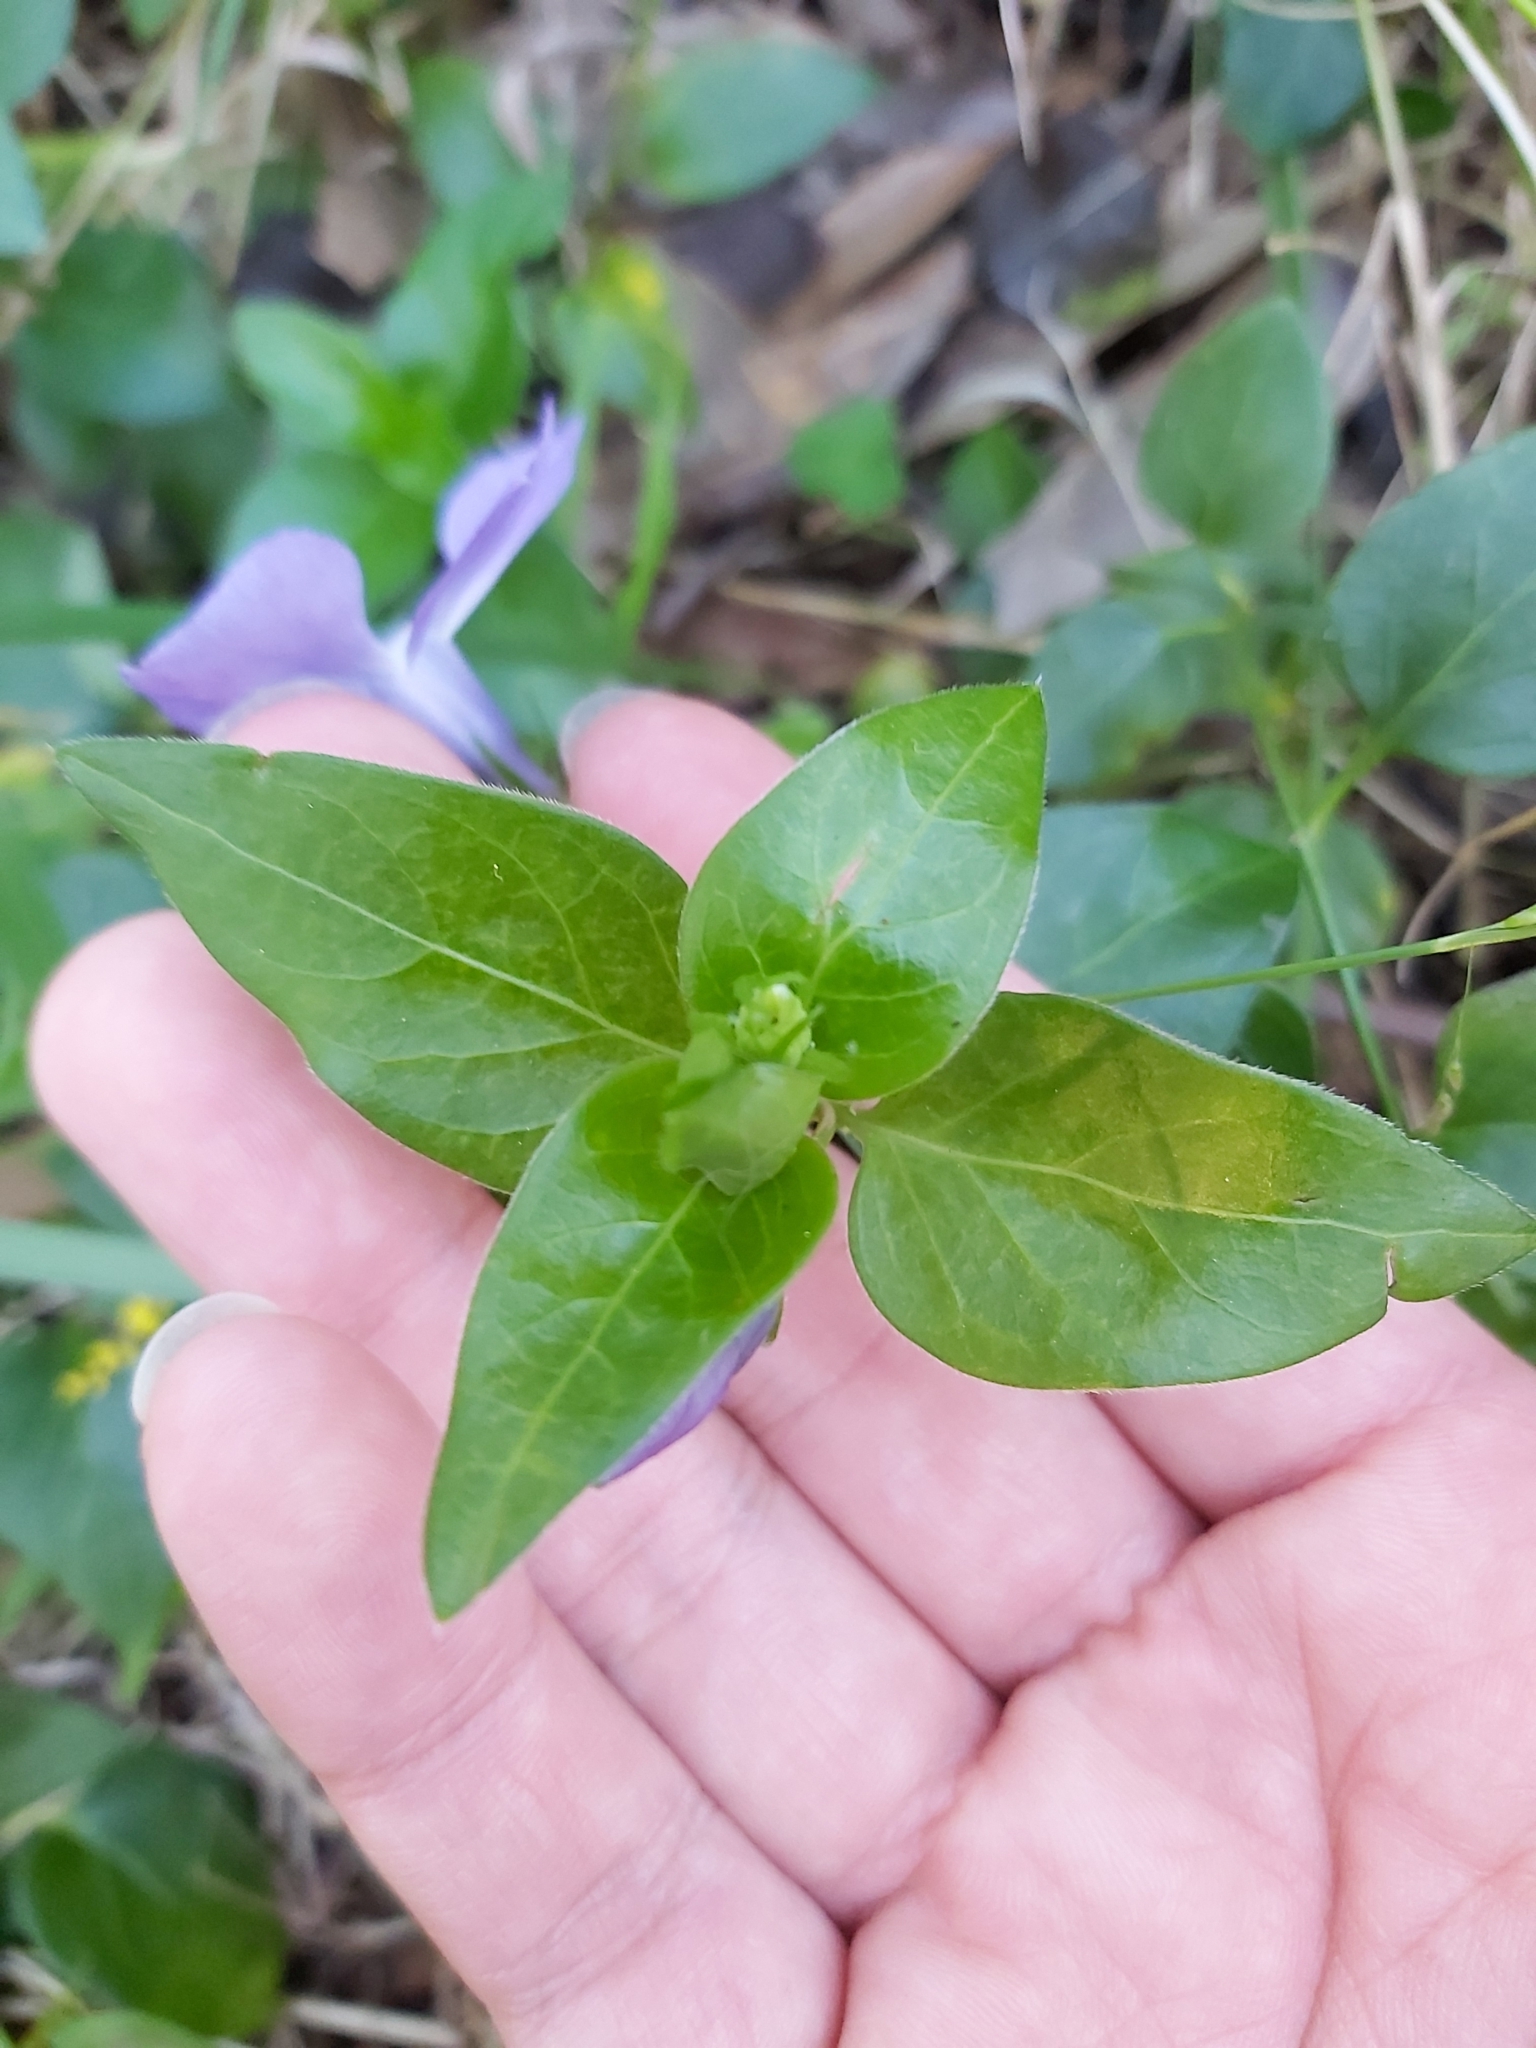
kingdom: Plantae
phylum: Tracheophyta
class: Magnoliopsida
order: Gentianales
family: Apocynaceae
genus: Vinca
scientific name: Vinca major
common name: Greater periwinkle
